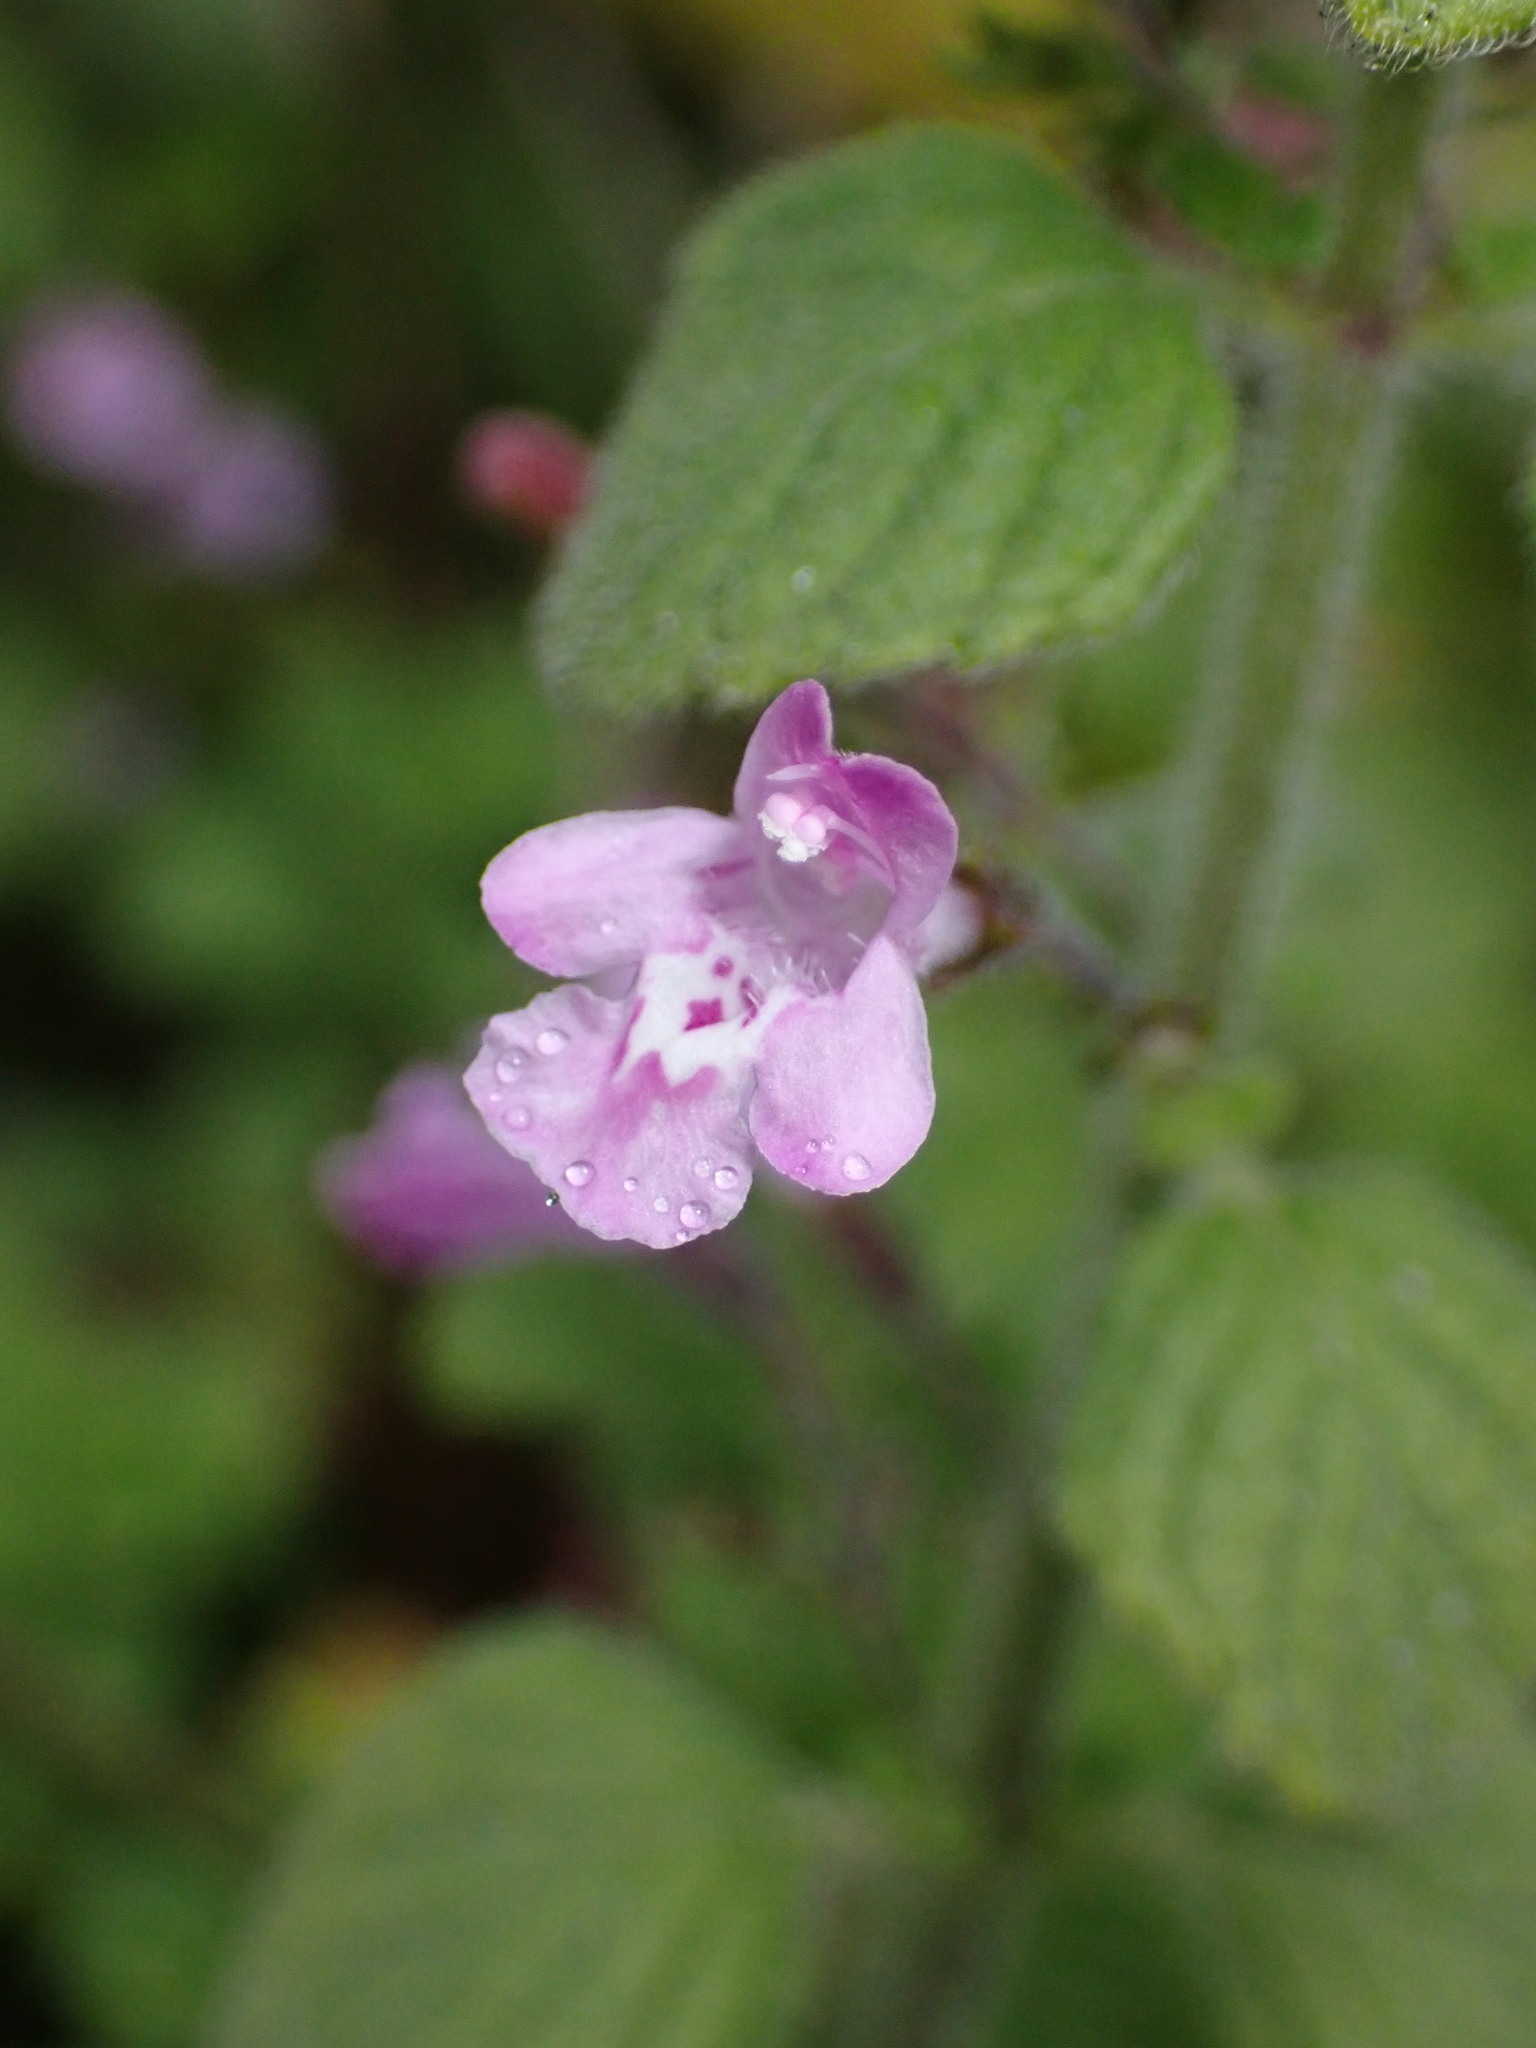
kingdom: Plantae
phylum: Tracheophyta
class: Magnoliopsida
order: Lamiales
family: Lamiaceae
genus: Clinopodium
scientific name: Clinopodium menthifolium
